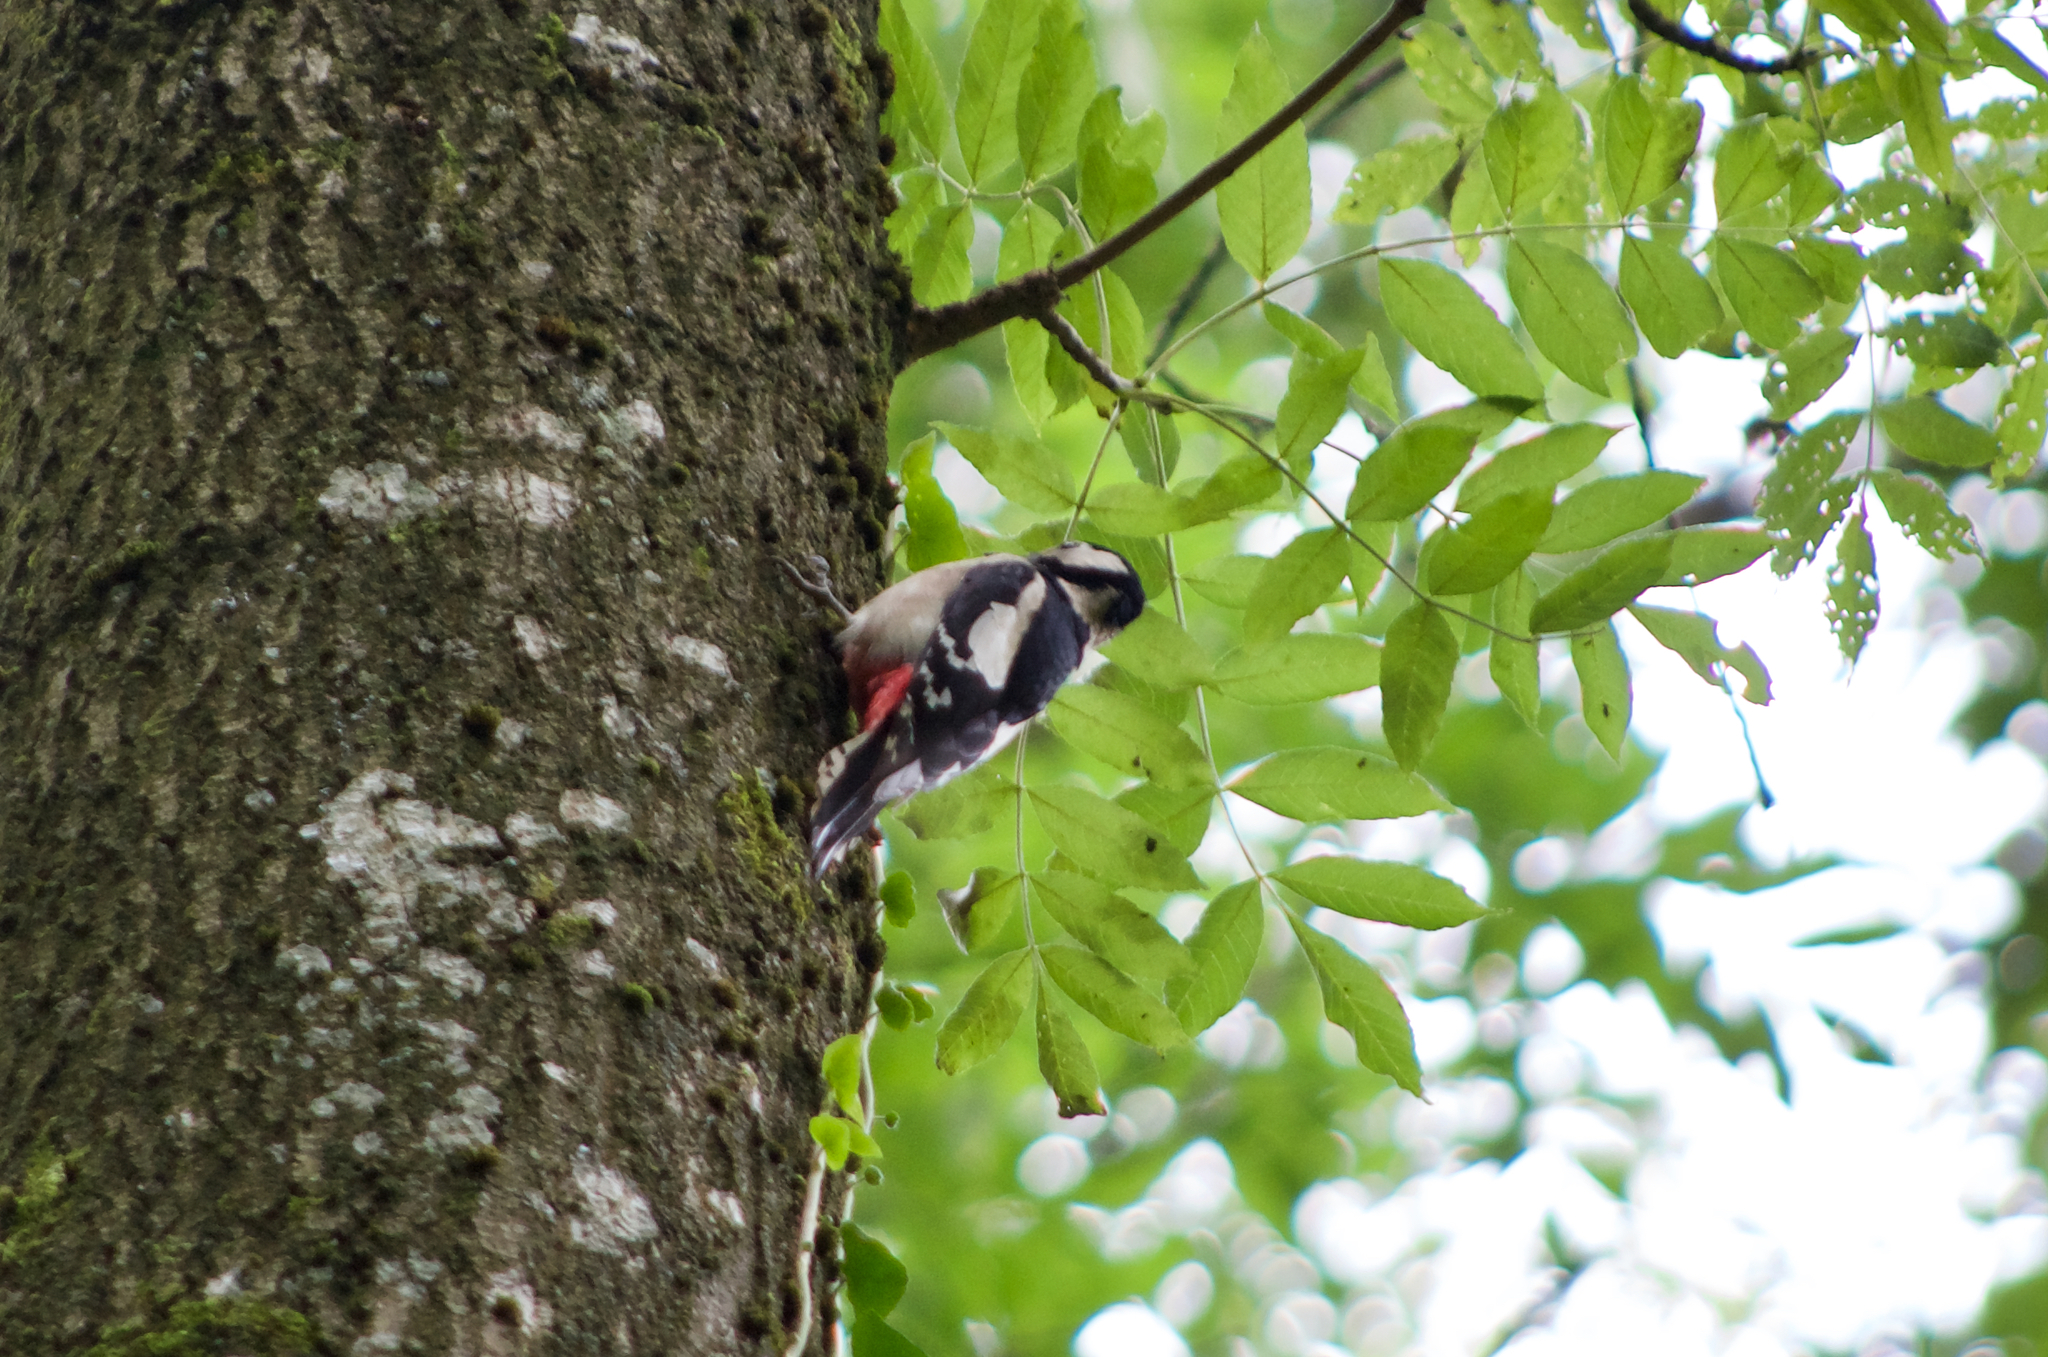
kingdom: Animalia
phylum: Chordata
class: Aves
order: Piciformes
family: Picidae
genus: Dendrocopos
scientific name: Dendrocopos major
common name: Great spotted woodpecker
